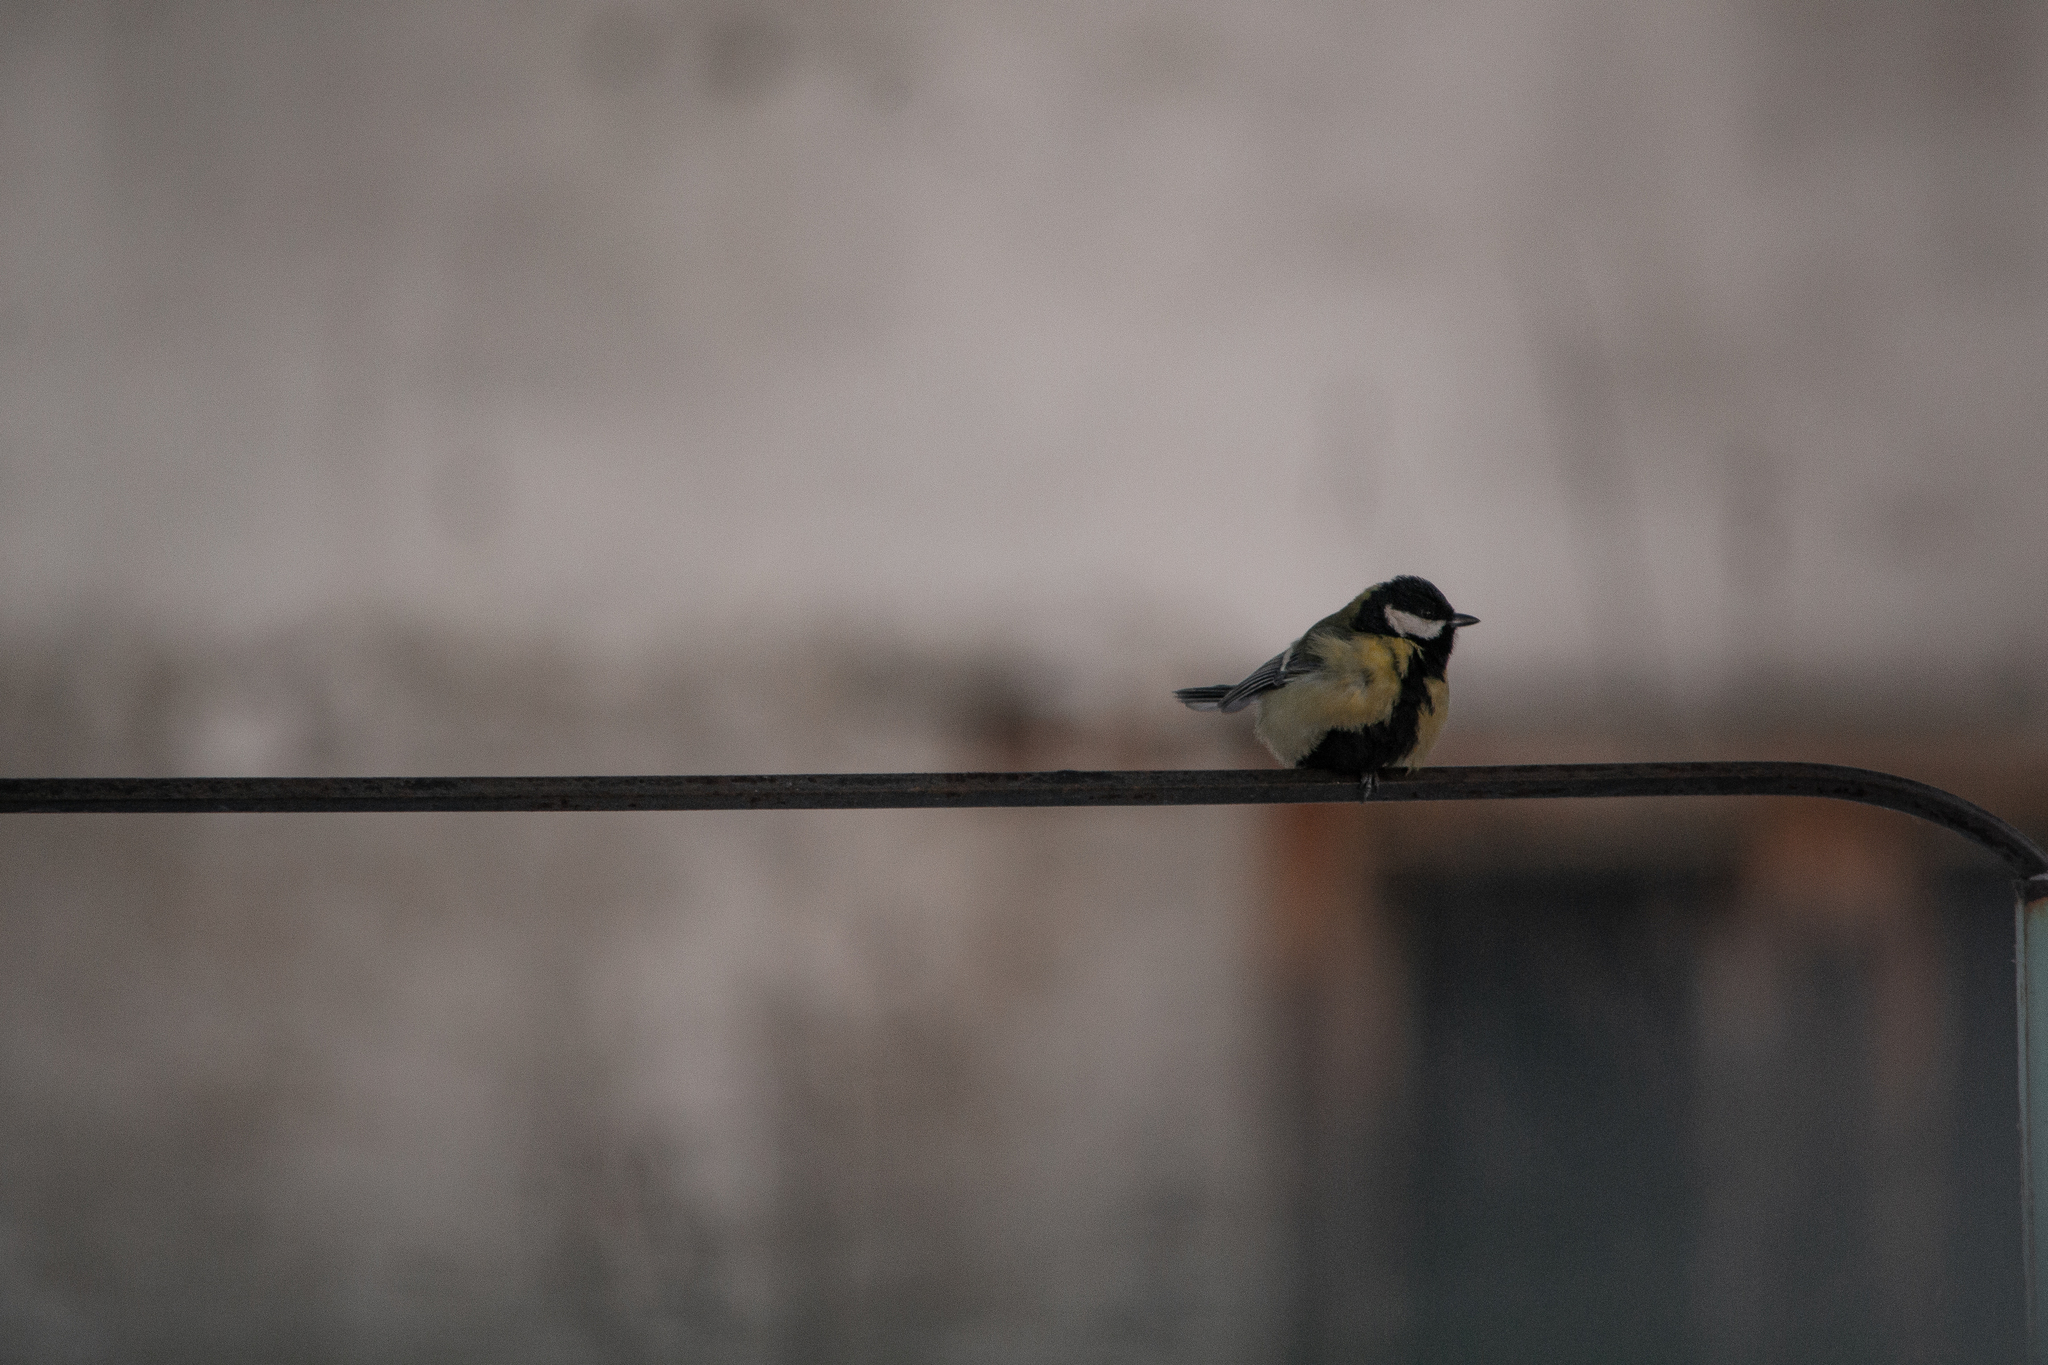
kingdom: Animalia
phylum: Chordata
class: Aves
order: Passeriformes
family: Paridae
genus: Parus
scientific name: Parus major
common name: Great tit
